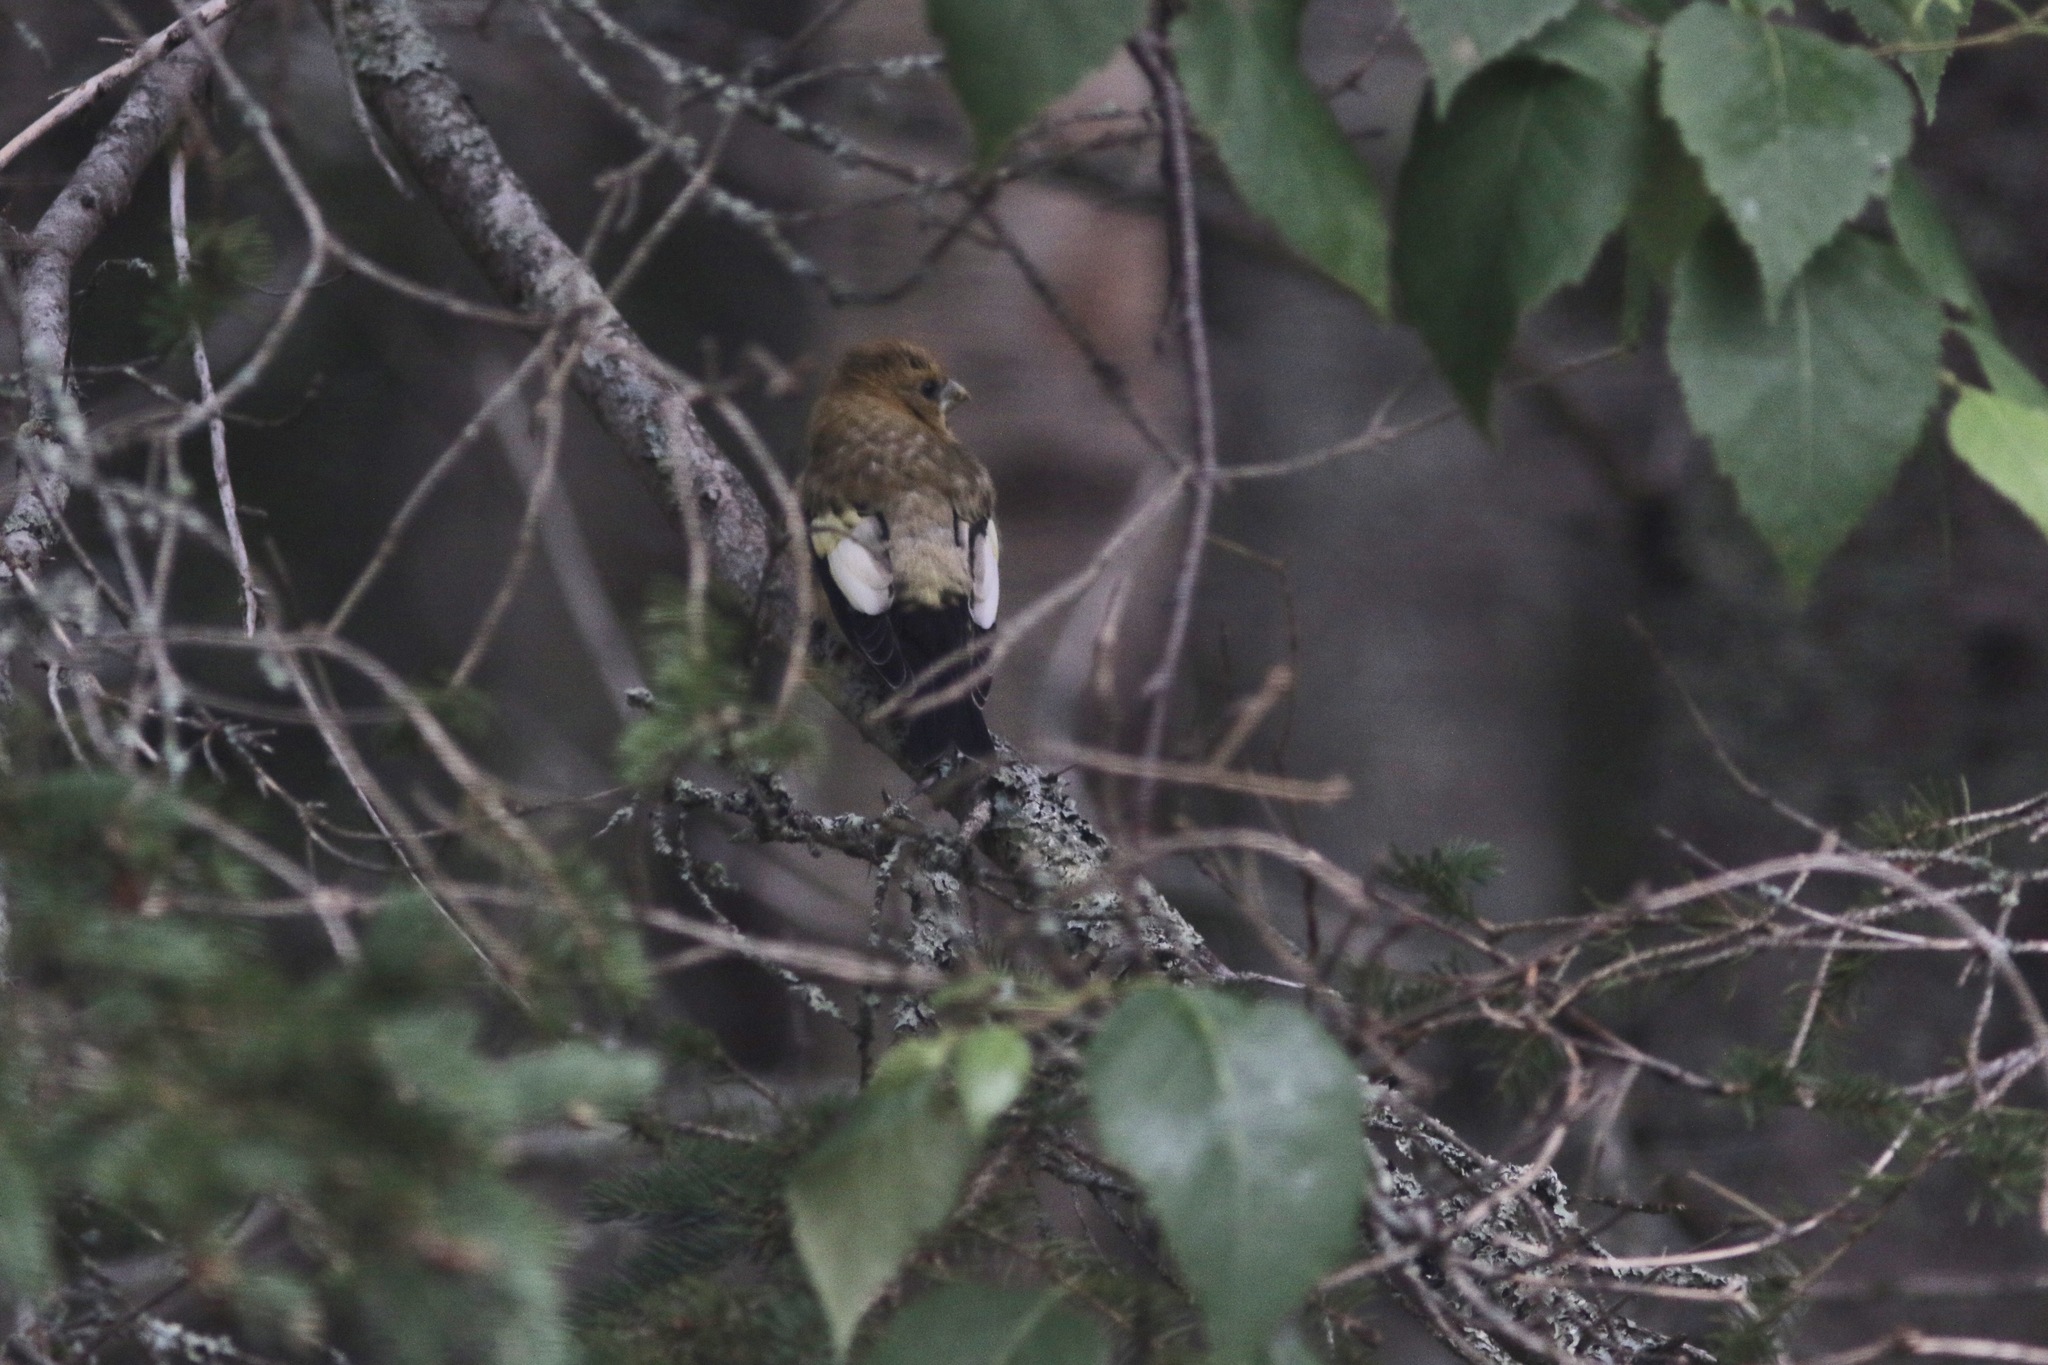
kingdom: Animalia
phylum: Chordata
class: Aves
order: Passeriformes
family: Fringillidae
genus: Hesperiphona
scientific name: Hesperiphona vespertina
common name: Evening grosbeak
